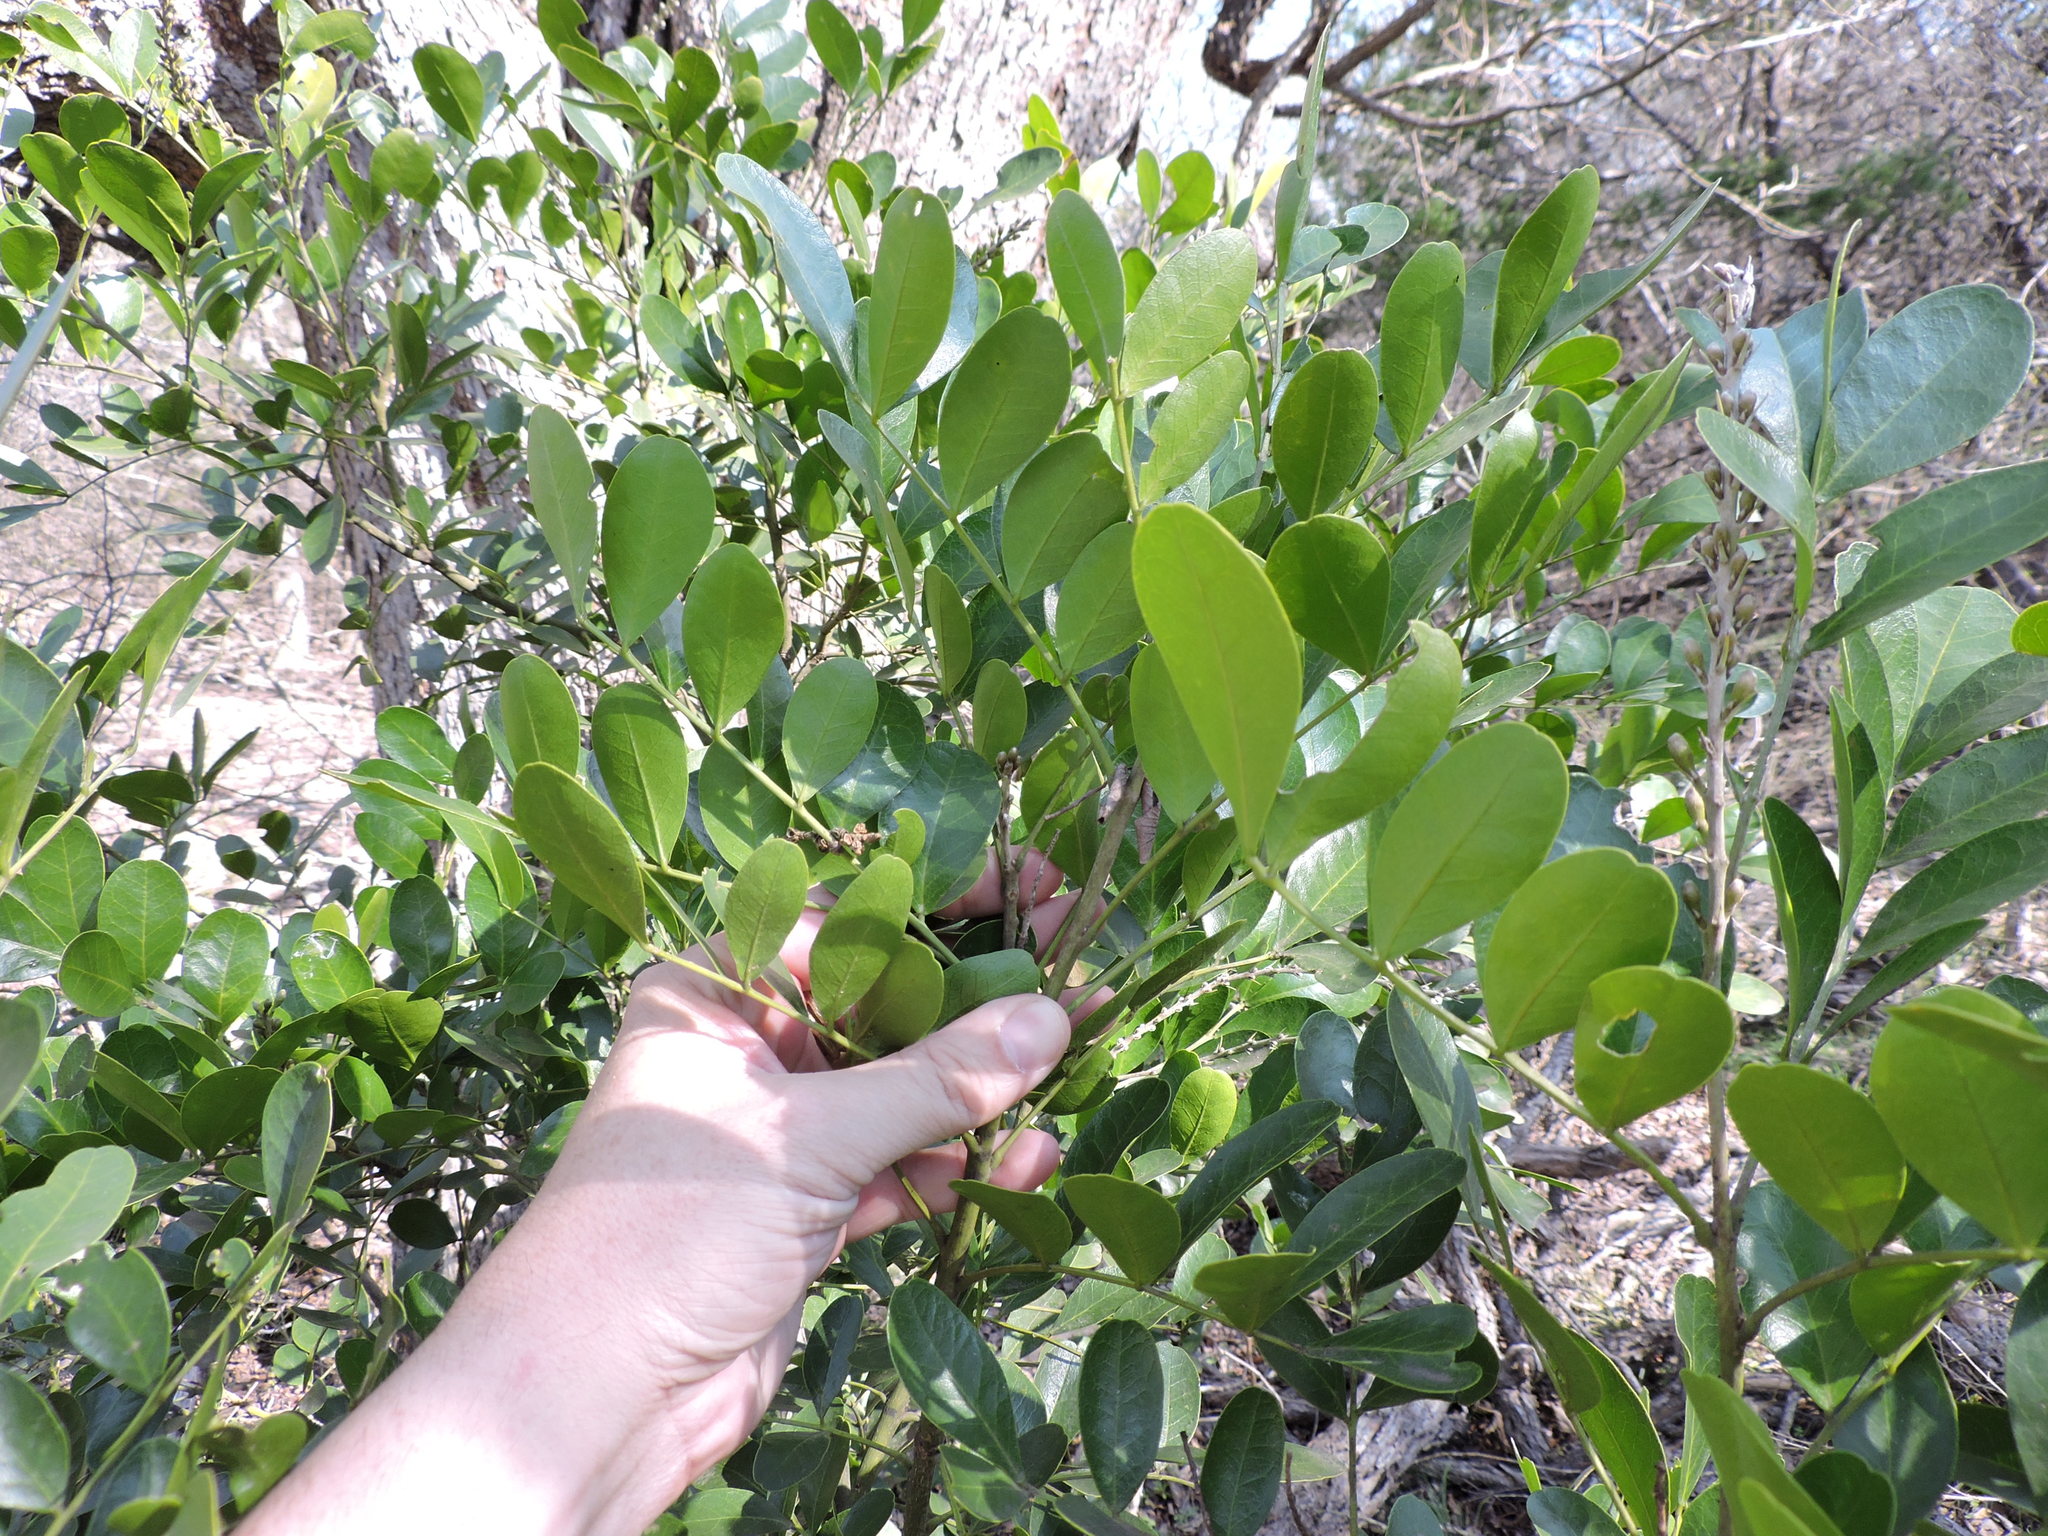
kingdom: Plantae
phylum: Tracheophyta
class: Magnoliopsida
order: Fabales
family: Fabaceae
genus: Dermatophyllum
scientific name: Dermatophyllum secundiflorum
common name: Texas-mountain-laurel
